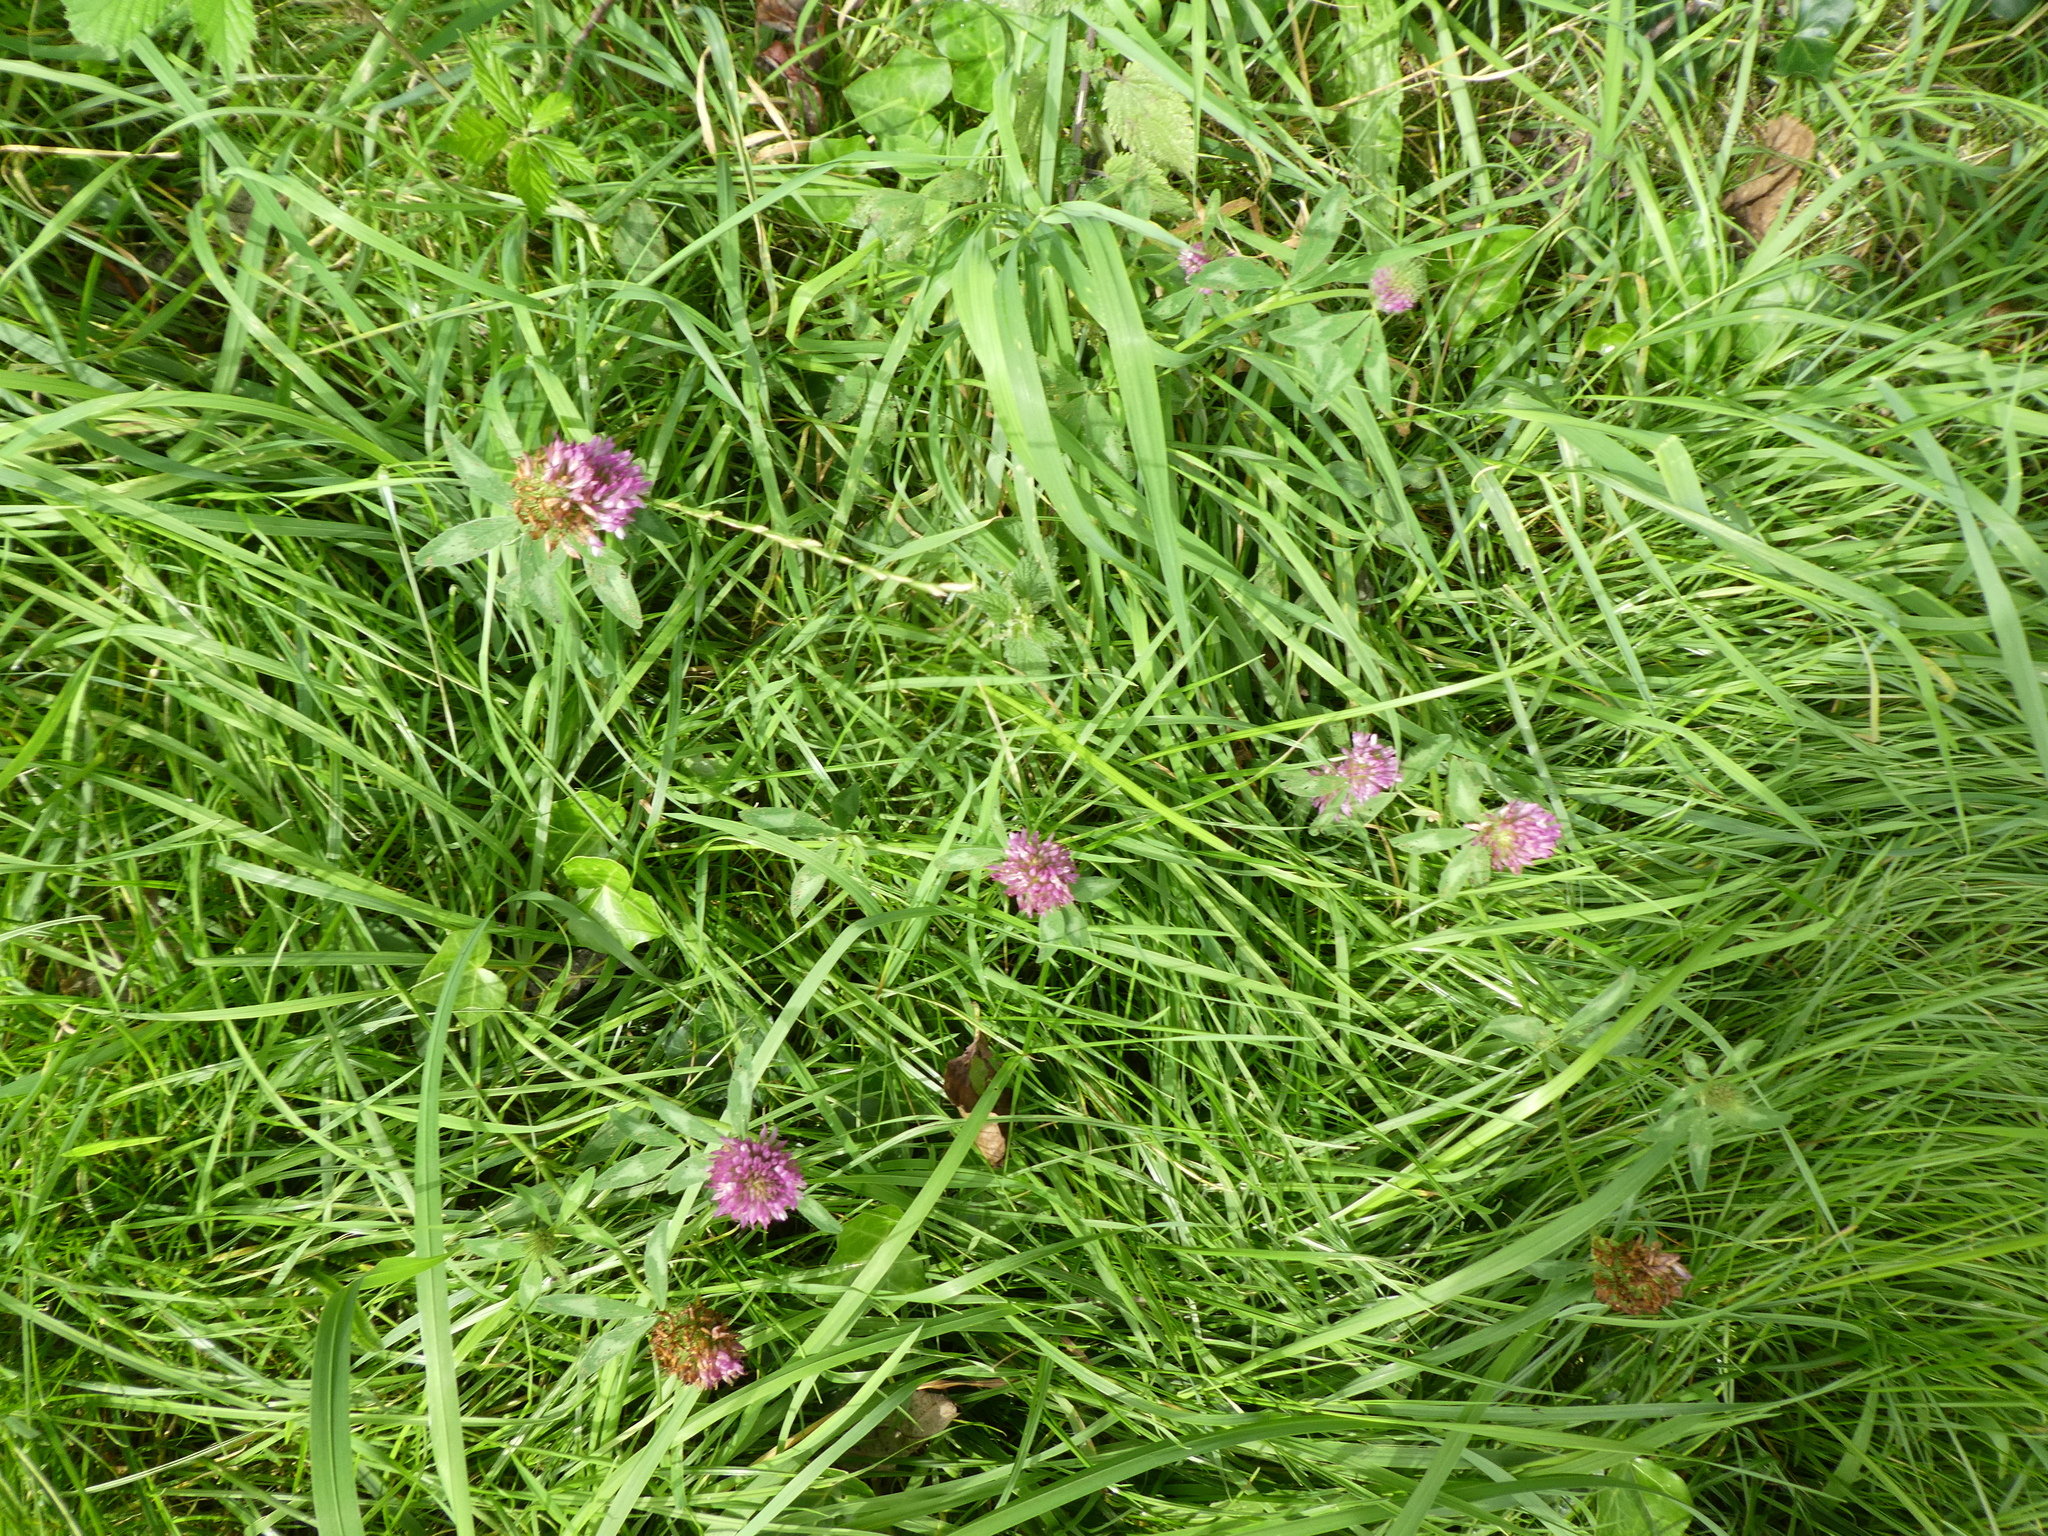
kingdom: Plantae
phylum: Tracheophyta
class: Magnoliopsida
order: Fabales
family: Fabaceae
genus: Trifolium
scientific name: Trifolium pratense
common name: Red clover
